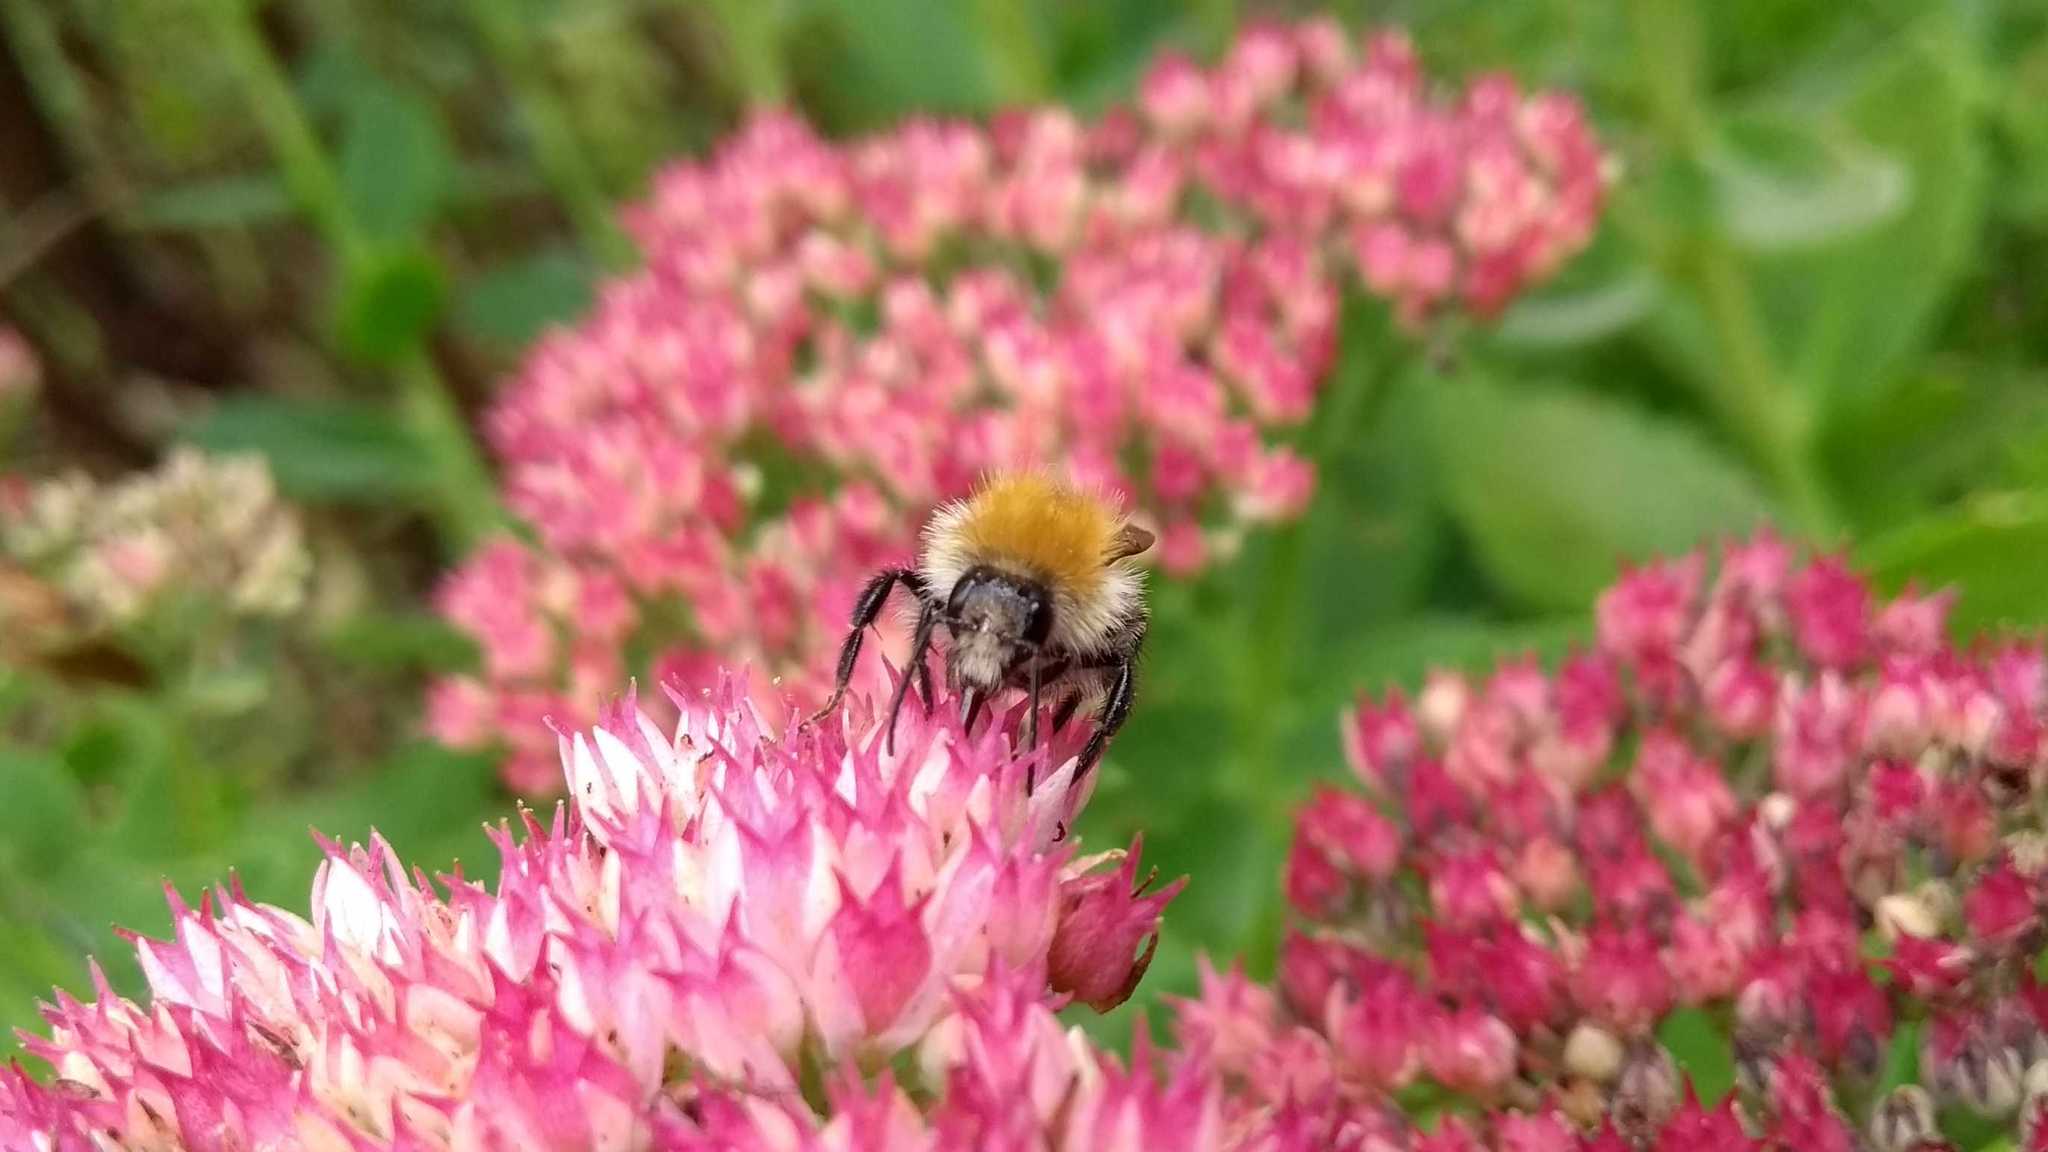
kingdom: Animalia
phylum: Arthropoda
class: Insecta
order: Hymenoptera
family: Apidae
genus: Bombus
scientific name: Bombus pascuorum
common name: Common carder bee
